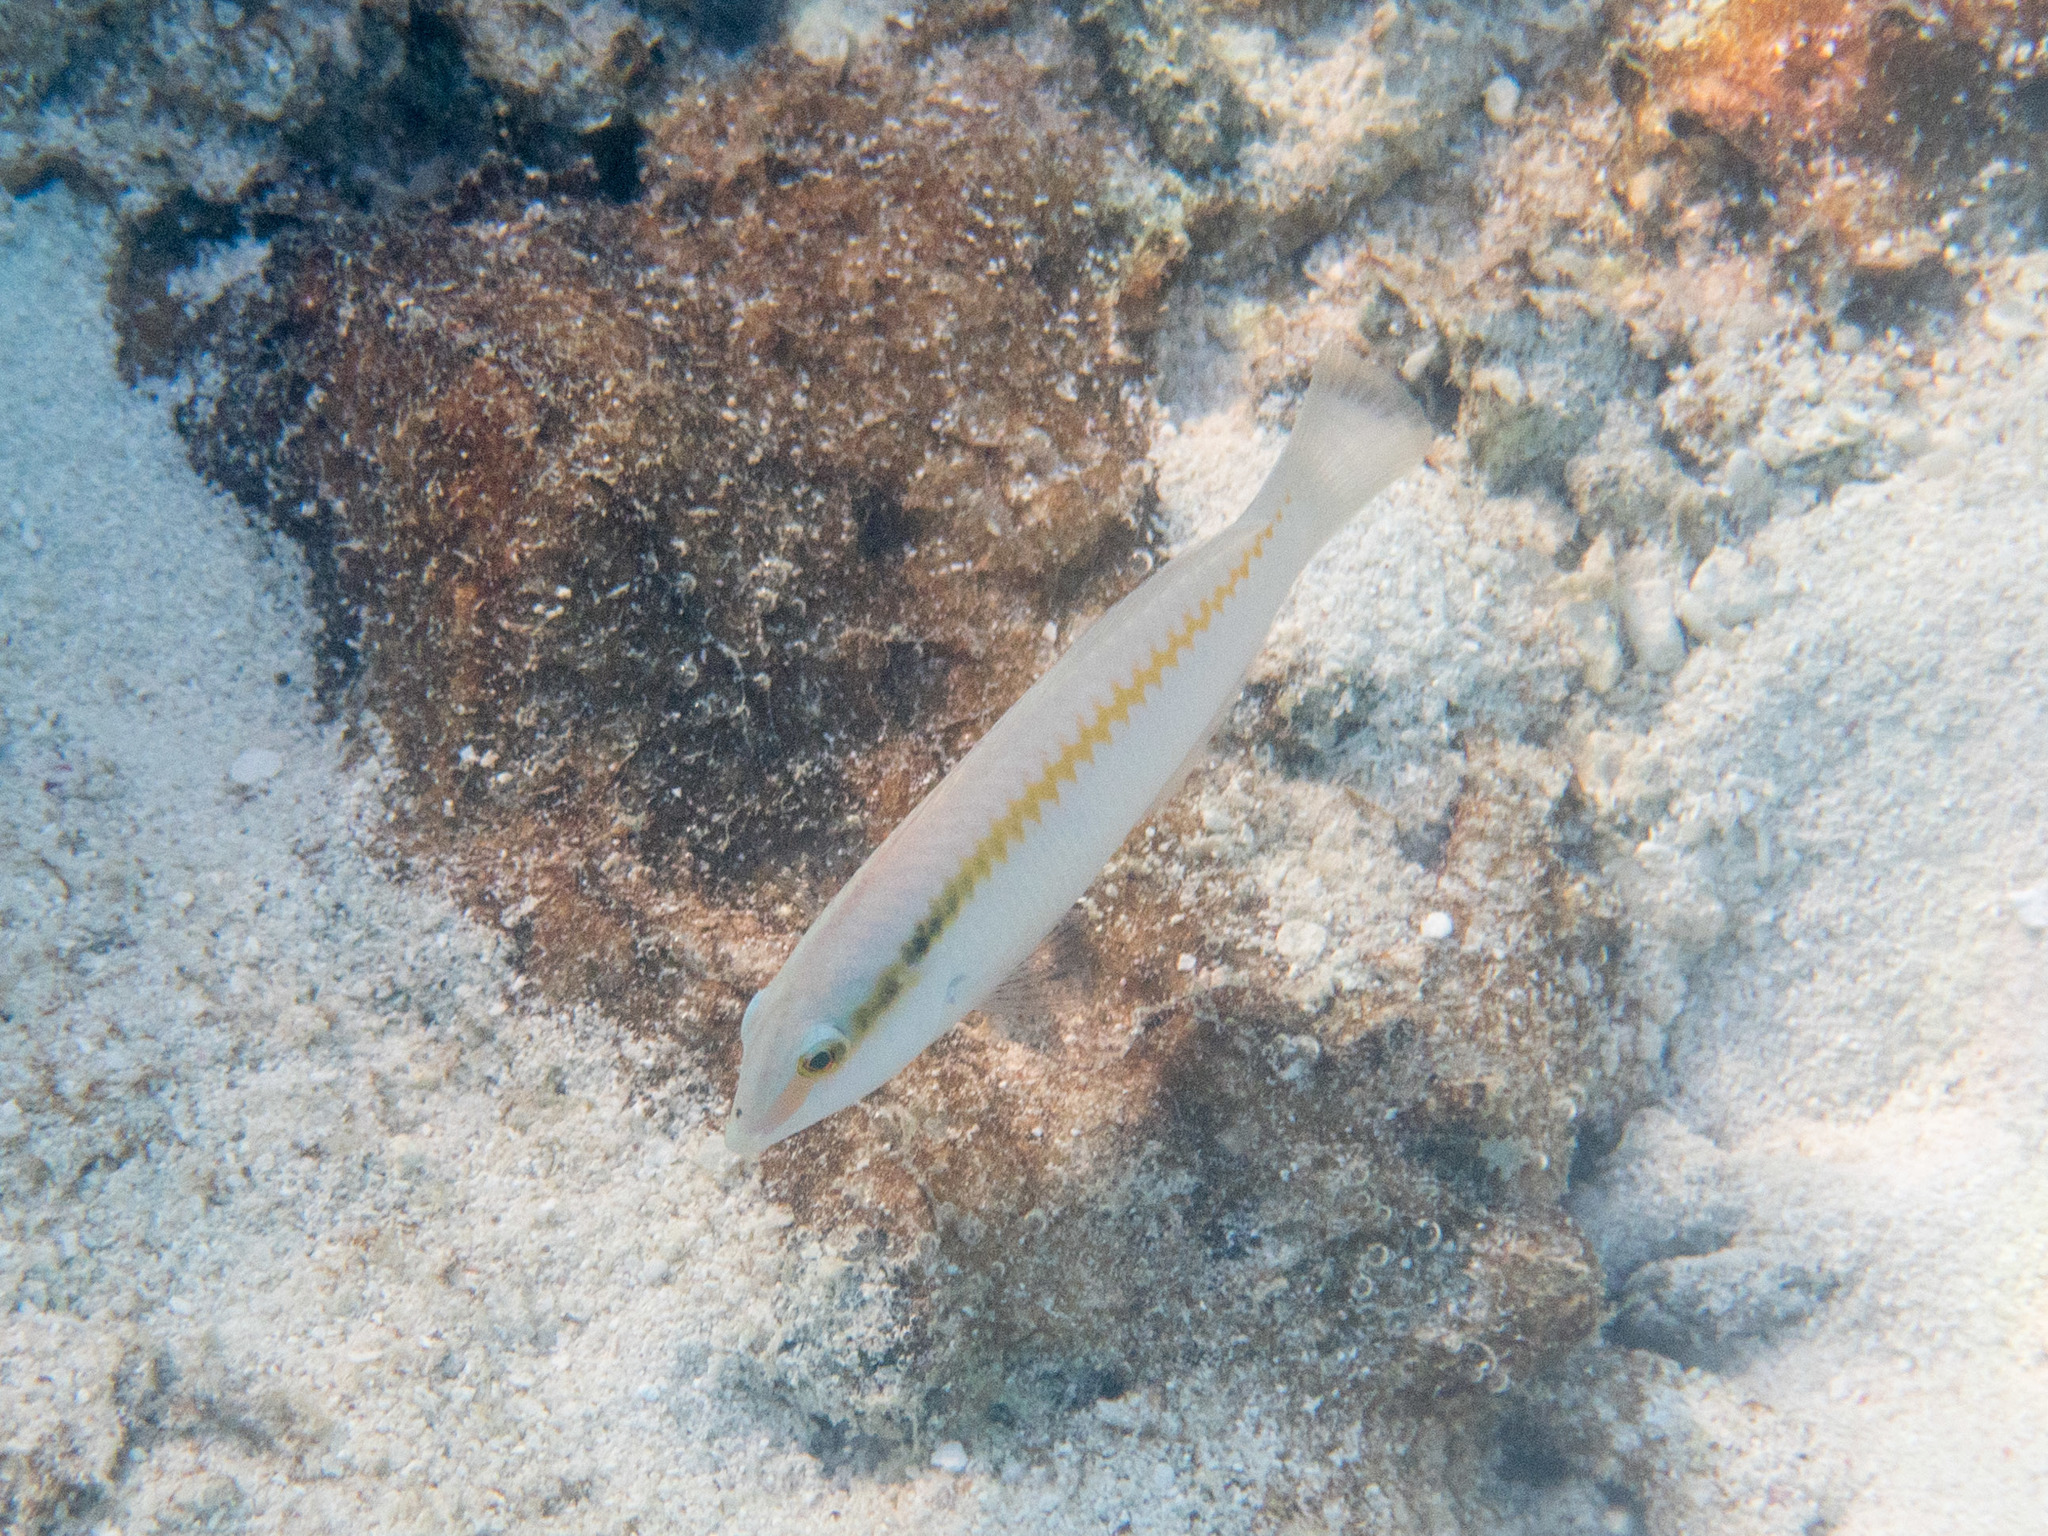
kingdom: Animalia
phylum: Chordata
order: Perciformes
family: Labridae
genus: Halichoeres
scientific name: Halichoeres scapularis
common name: Brownbanded wrasse
